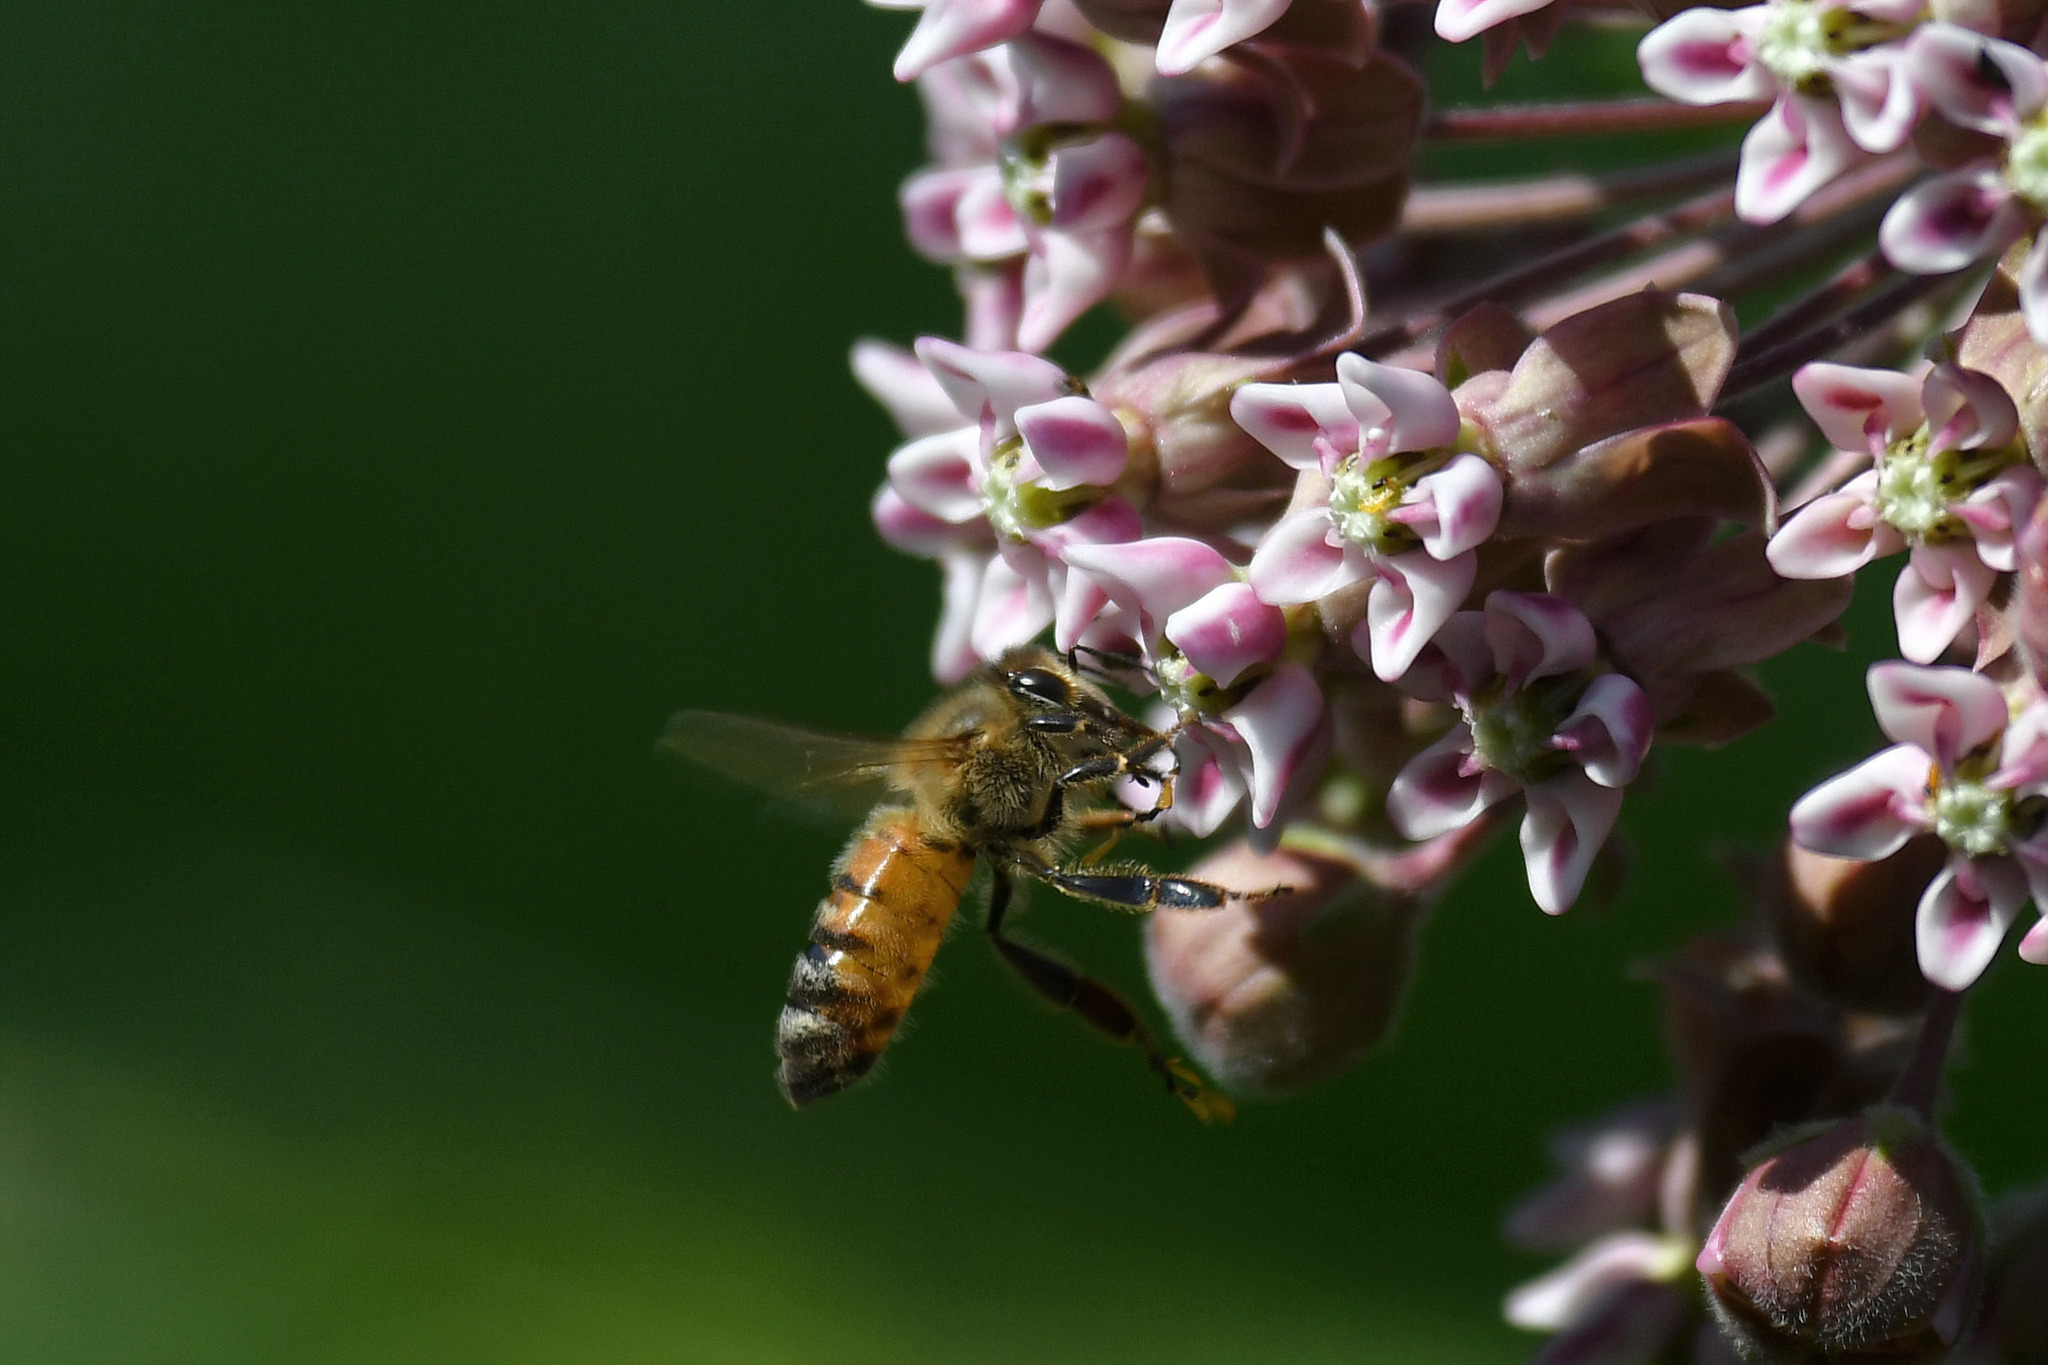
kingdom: Animalia
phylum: Arthropoda
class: Insecta
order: Hymenoptera
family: Apidae
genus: Apis
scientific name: Apis mellifera
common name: Honey bee
